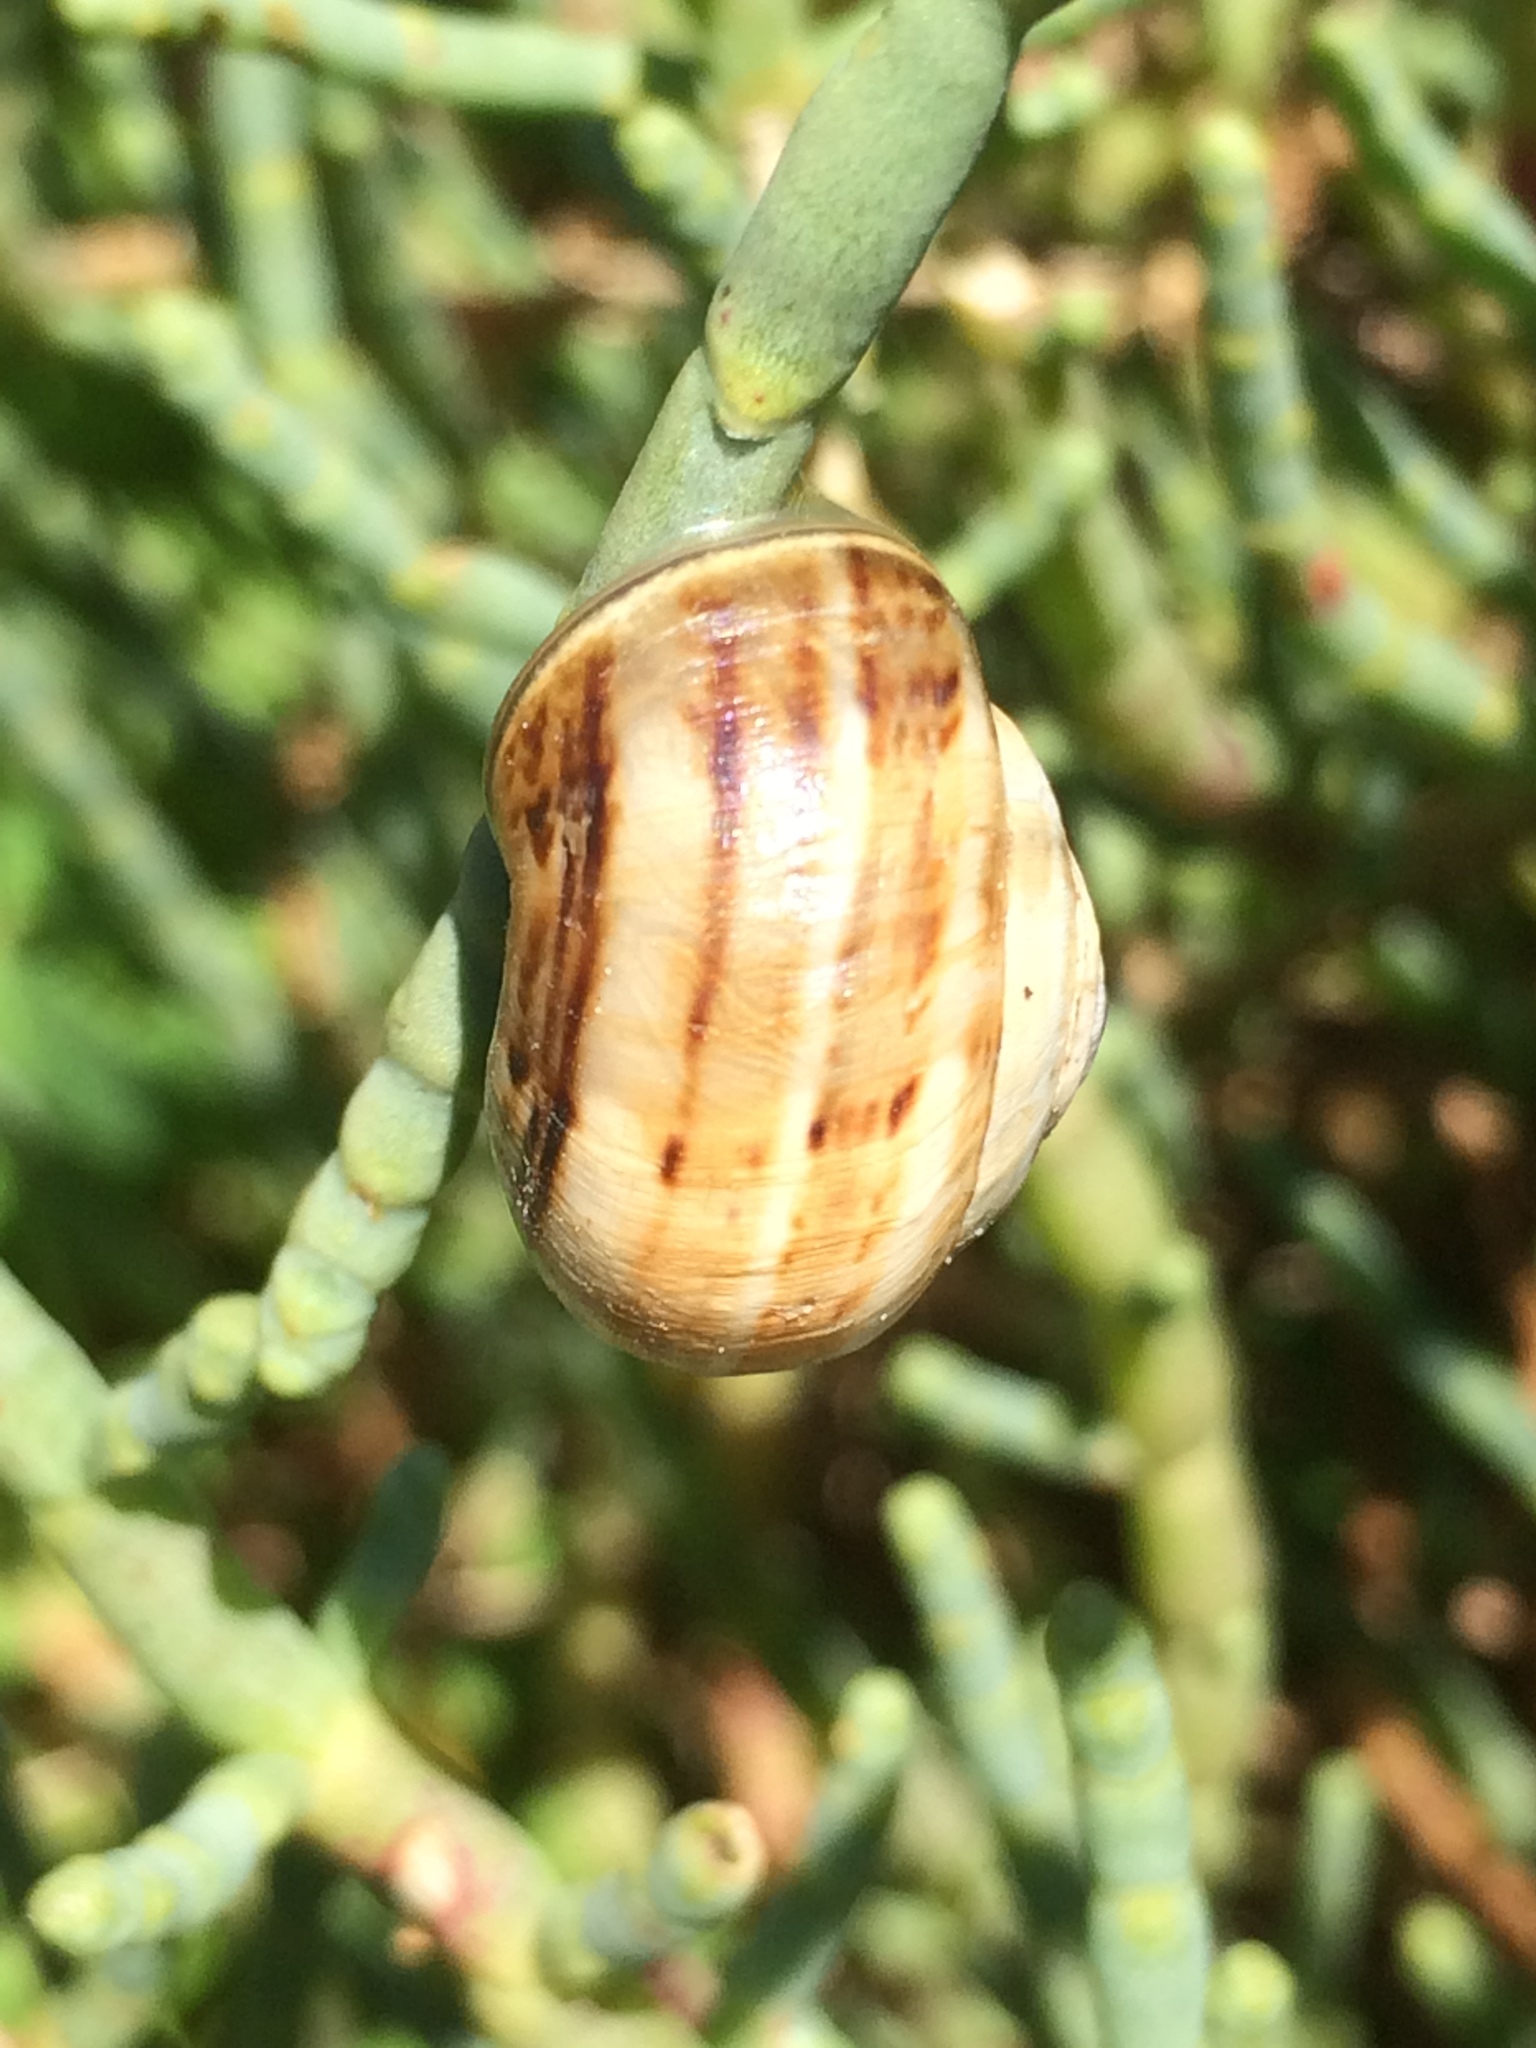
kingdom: Animalia
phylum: Mollusca
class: Gastropoda
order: Stylommatophora
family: Helicidae
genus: Theba
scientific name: Theba pisana
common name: White snail
